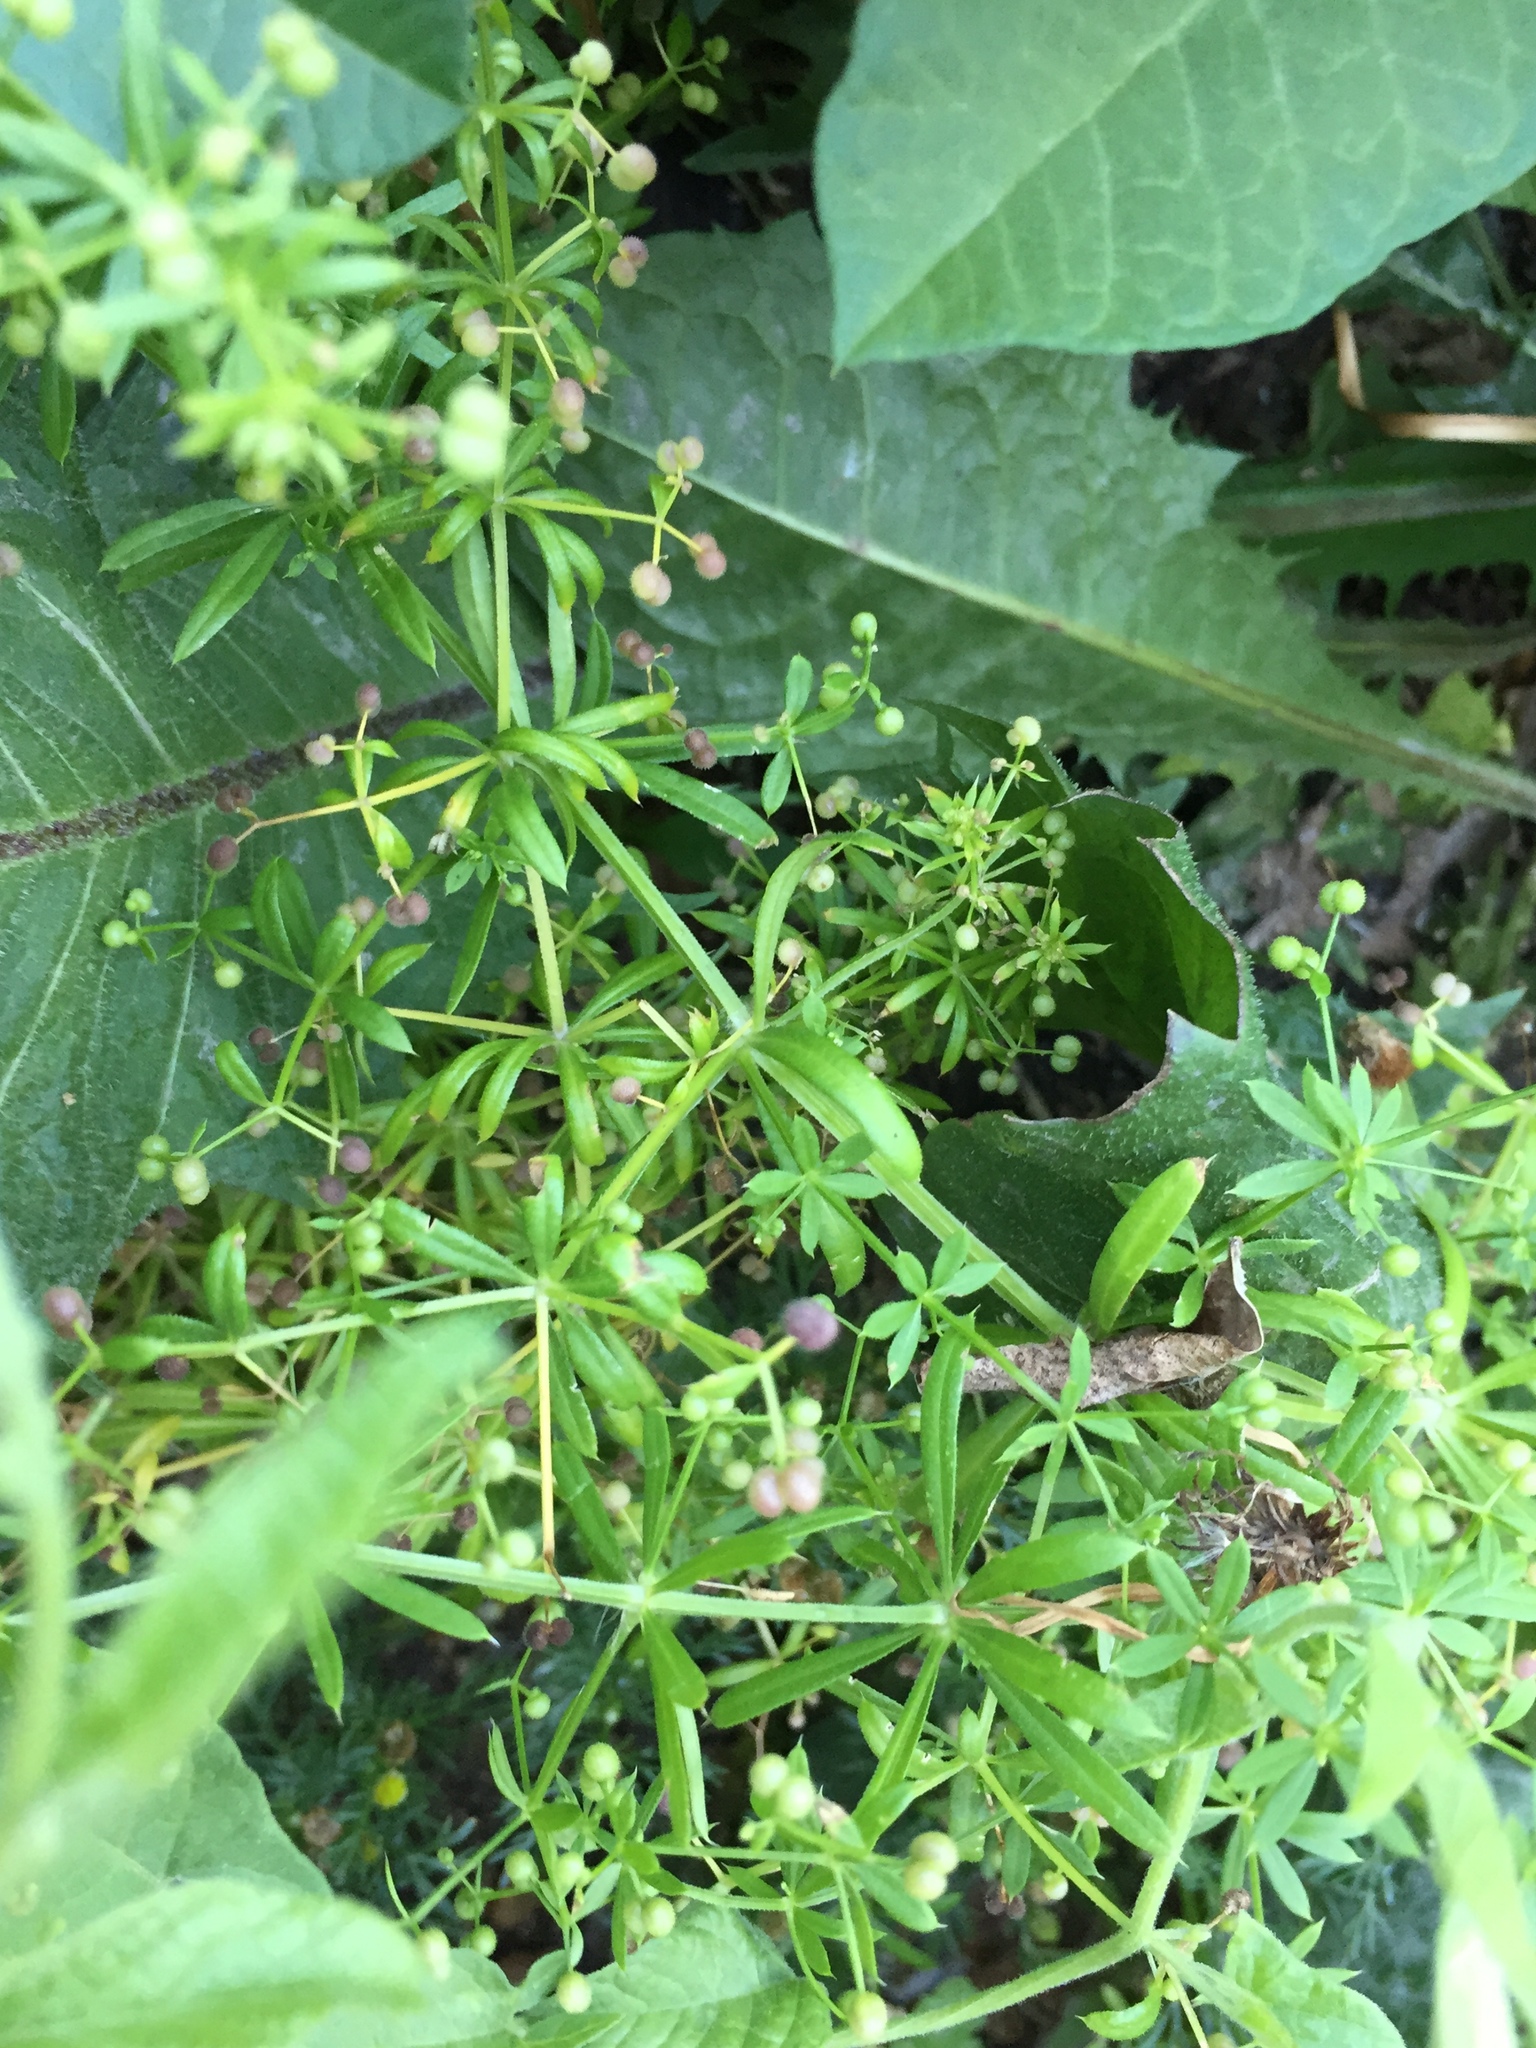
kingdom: Plantae
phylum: Tracheophyta
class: Magnoliopsida
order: Gentianales
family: Rubiaceae
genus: Galium
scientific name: Galium aparine
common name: Cleavers
